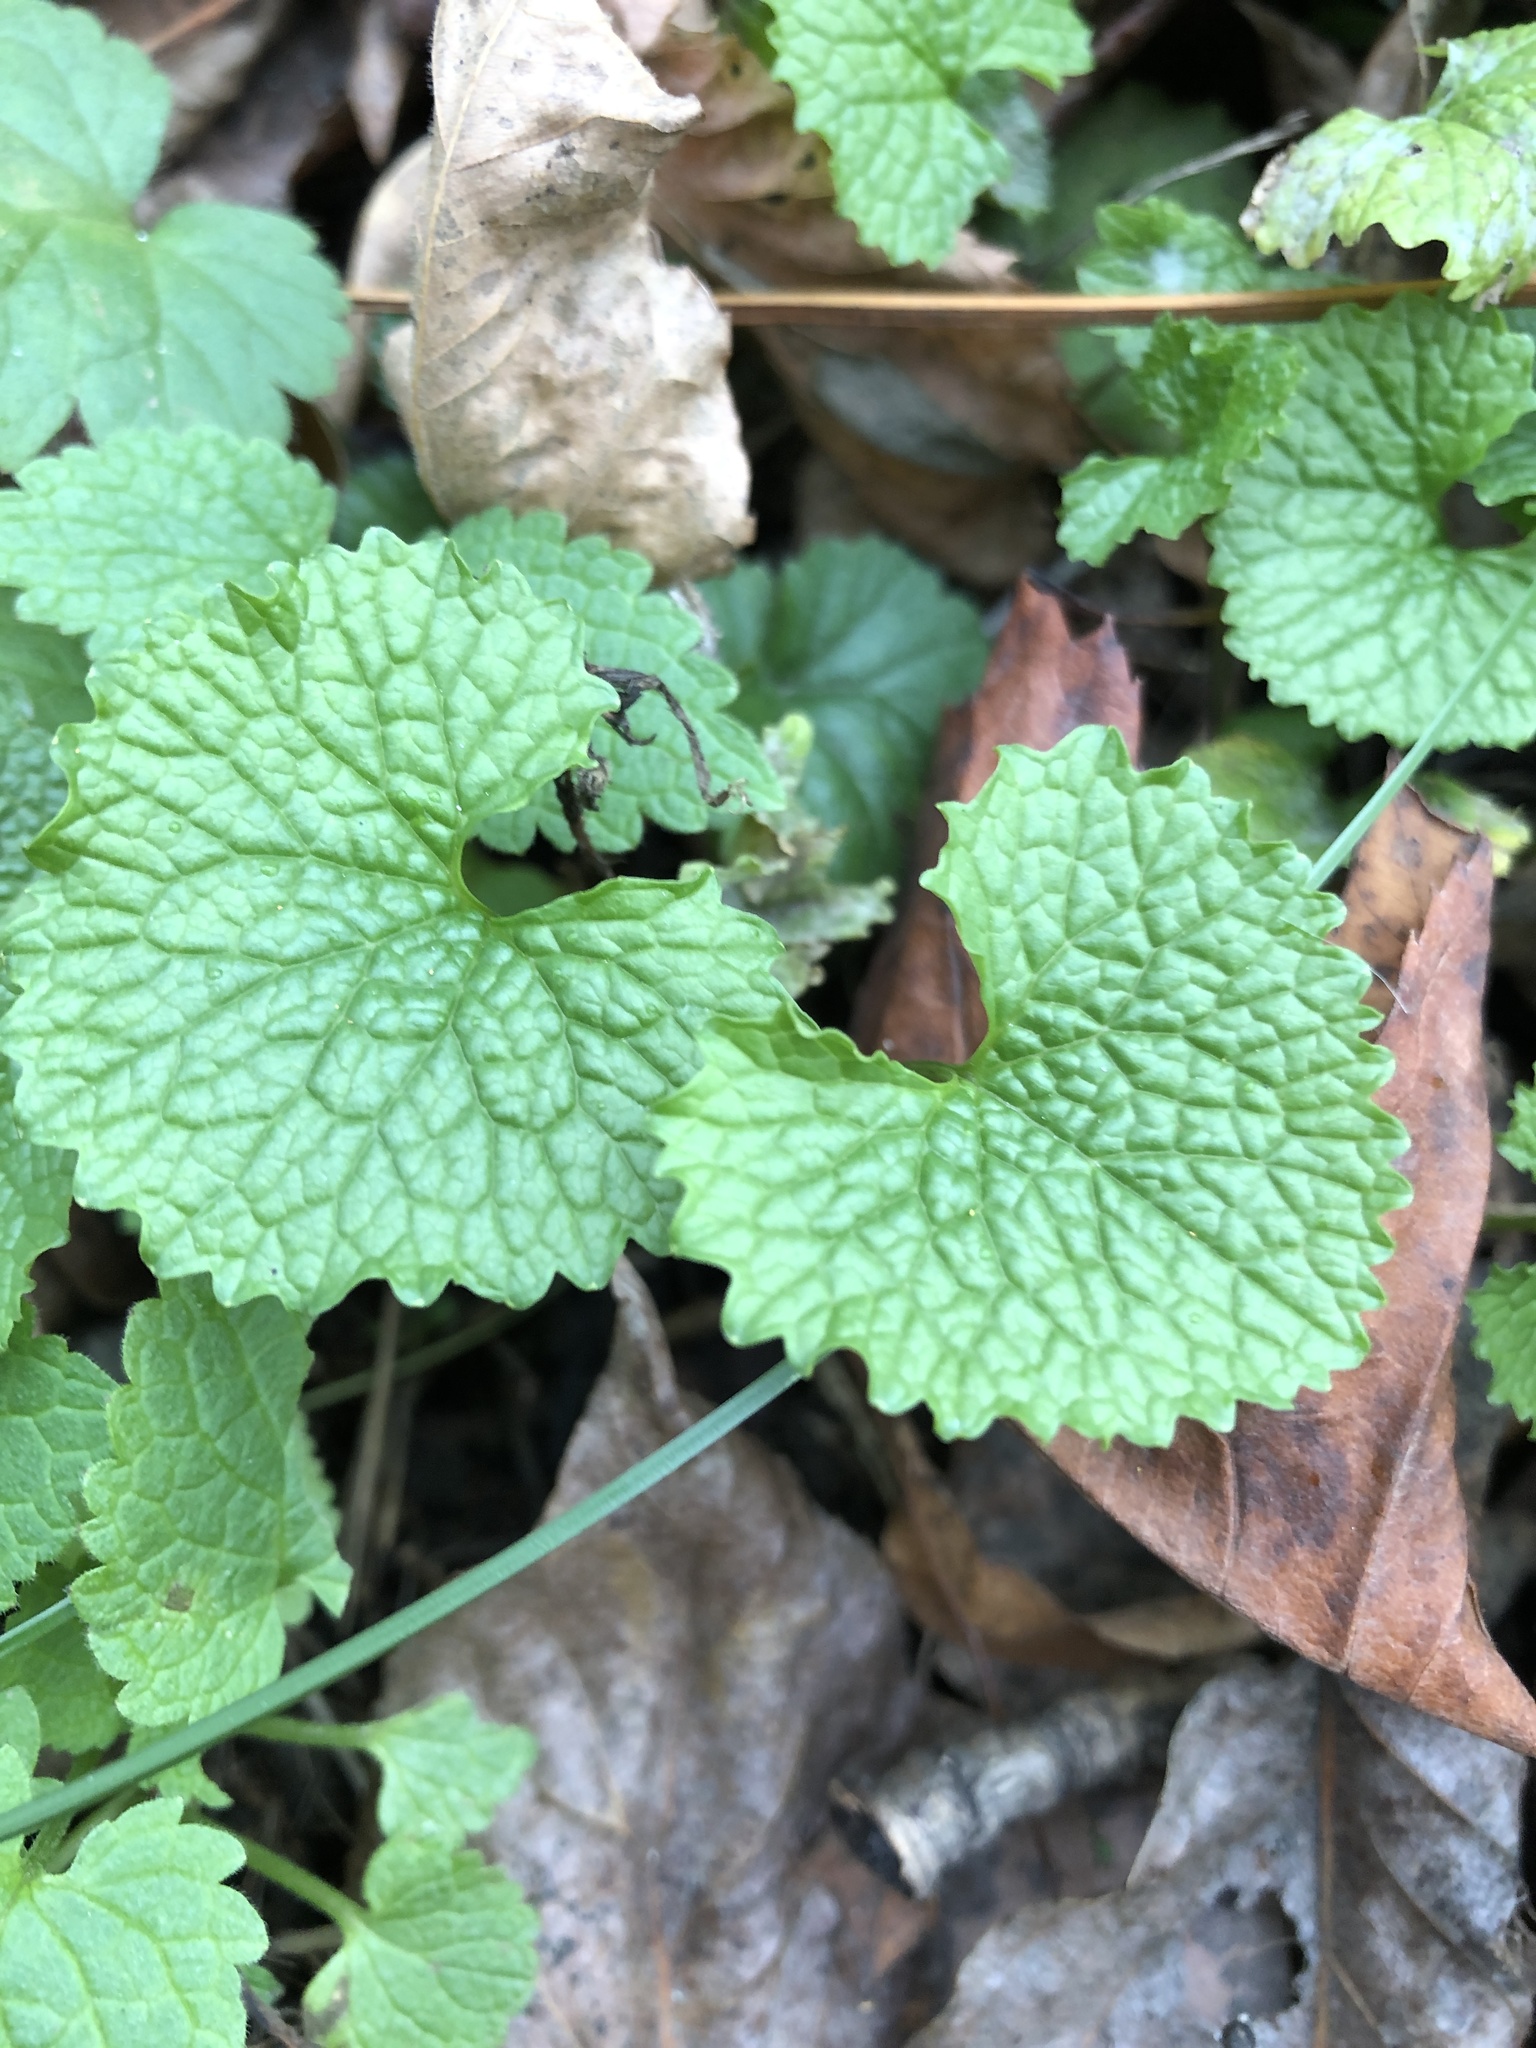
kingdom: Plantae
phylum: Tracheophyta
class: Magnoliopsida
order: Brassicales
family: Brassicaceae
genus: Alliaria
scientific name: Alliaria petiolata
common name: Garlic mustard
